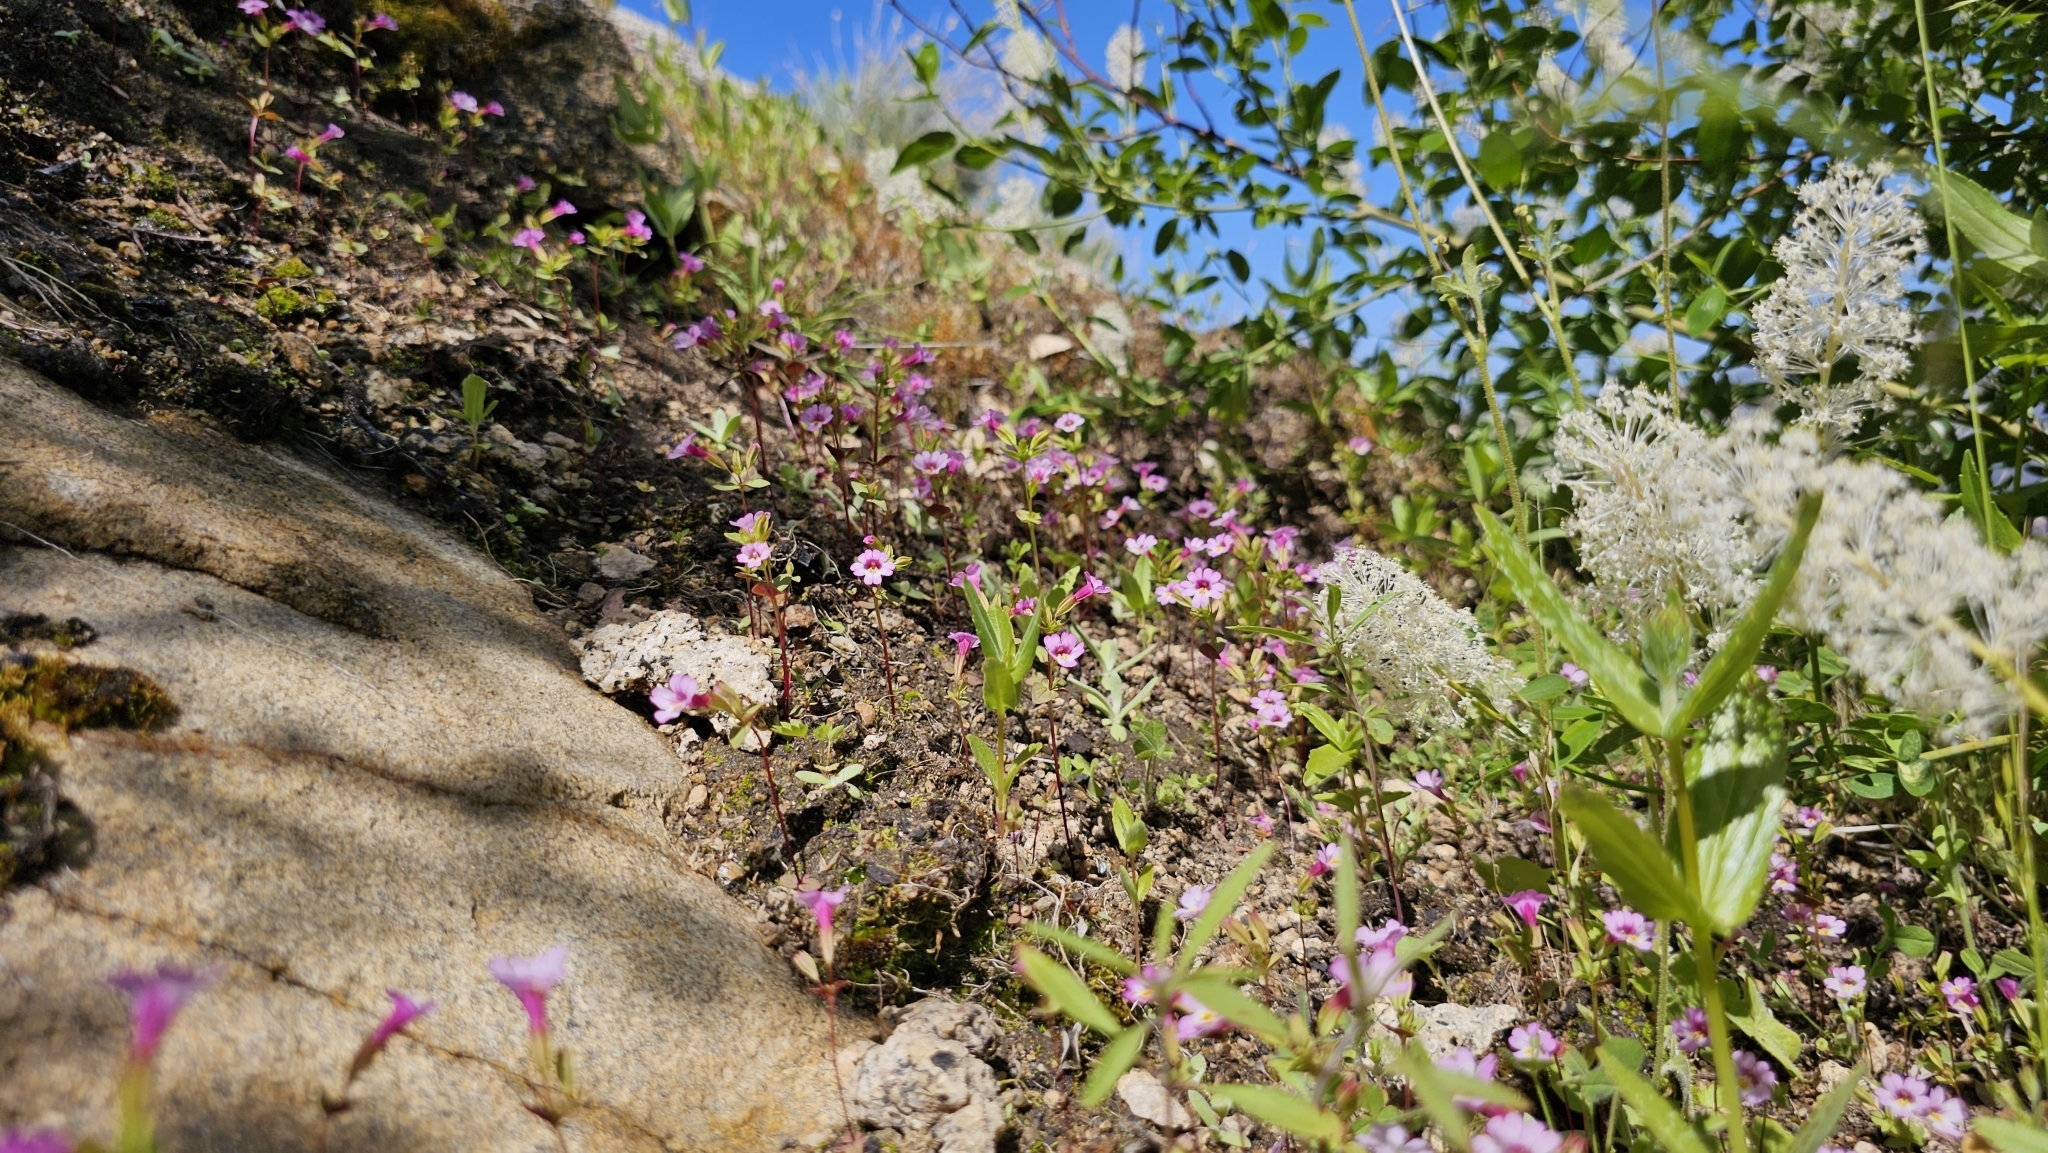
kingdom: Plantae
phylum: Tracheophyta
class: Magnoliopsida
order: Lamiales
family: Phrymaceae
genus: Erythranthe
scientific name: Erythranthe acutidens
